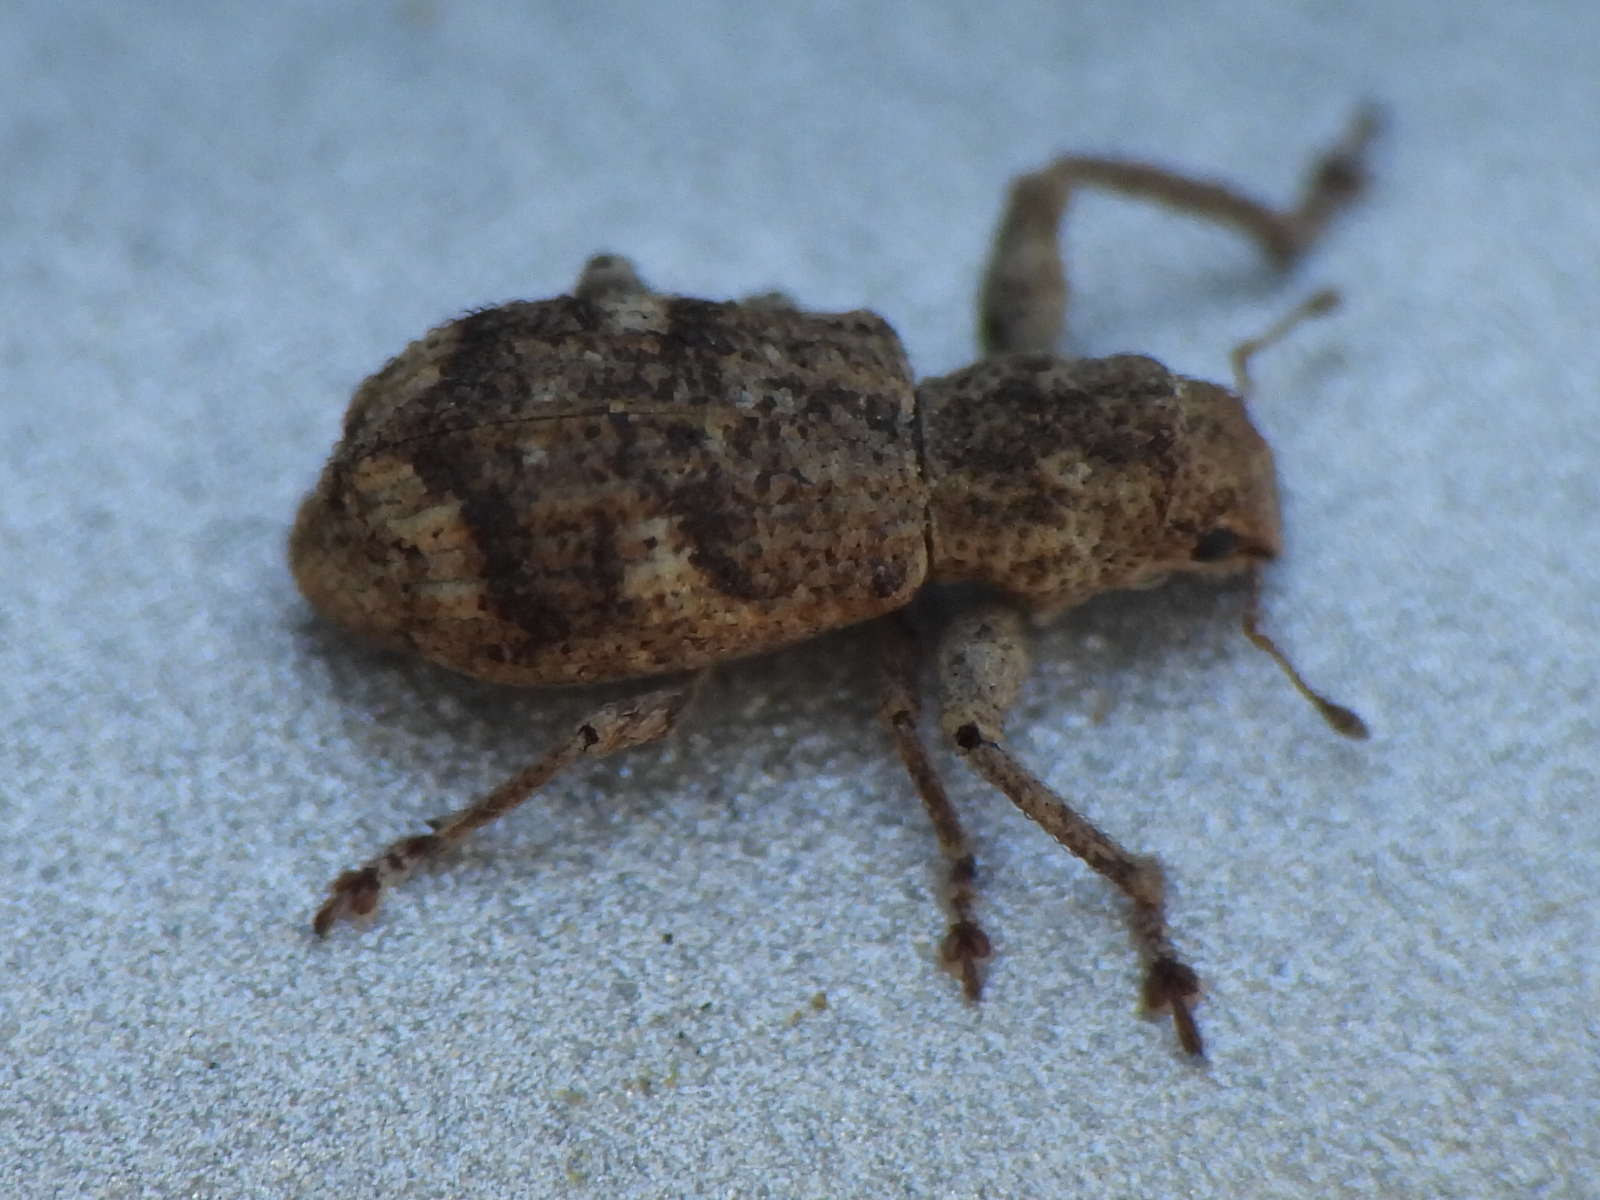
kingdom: Animalia
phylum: Arthropoda
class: Insecta
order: Coleoptera
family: Curculionidae
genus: Pandeleteius
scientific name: Pandeleteius cinereus
